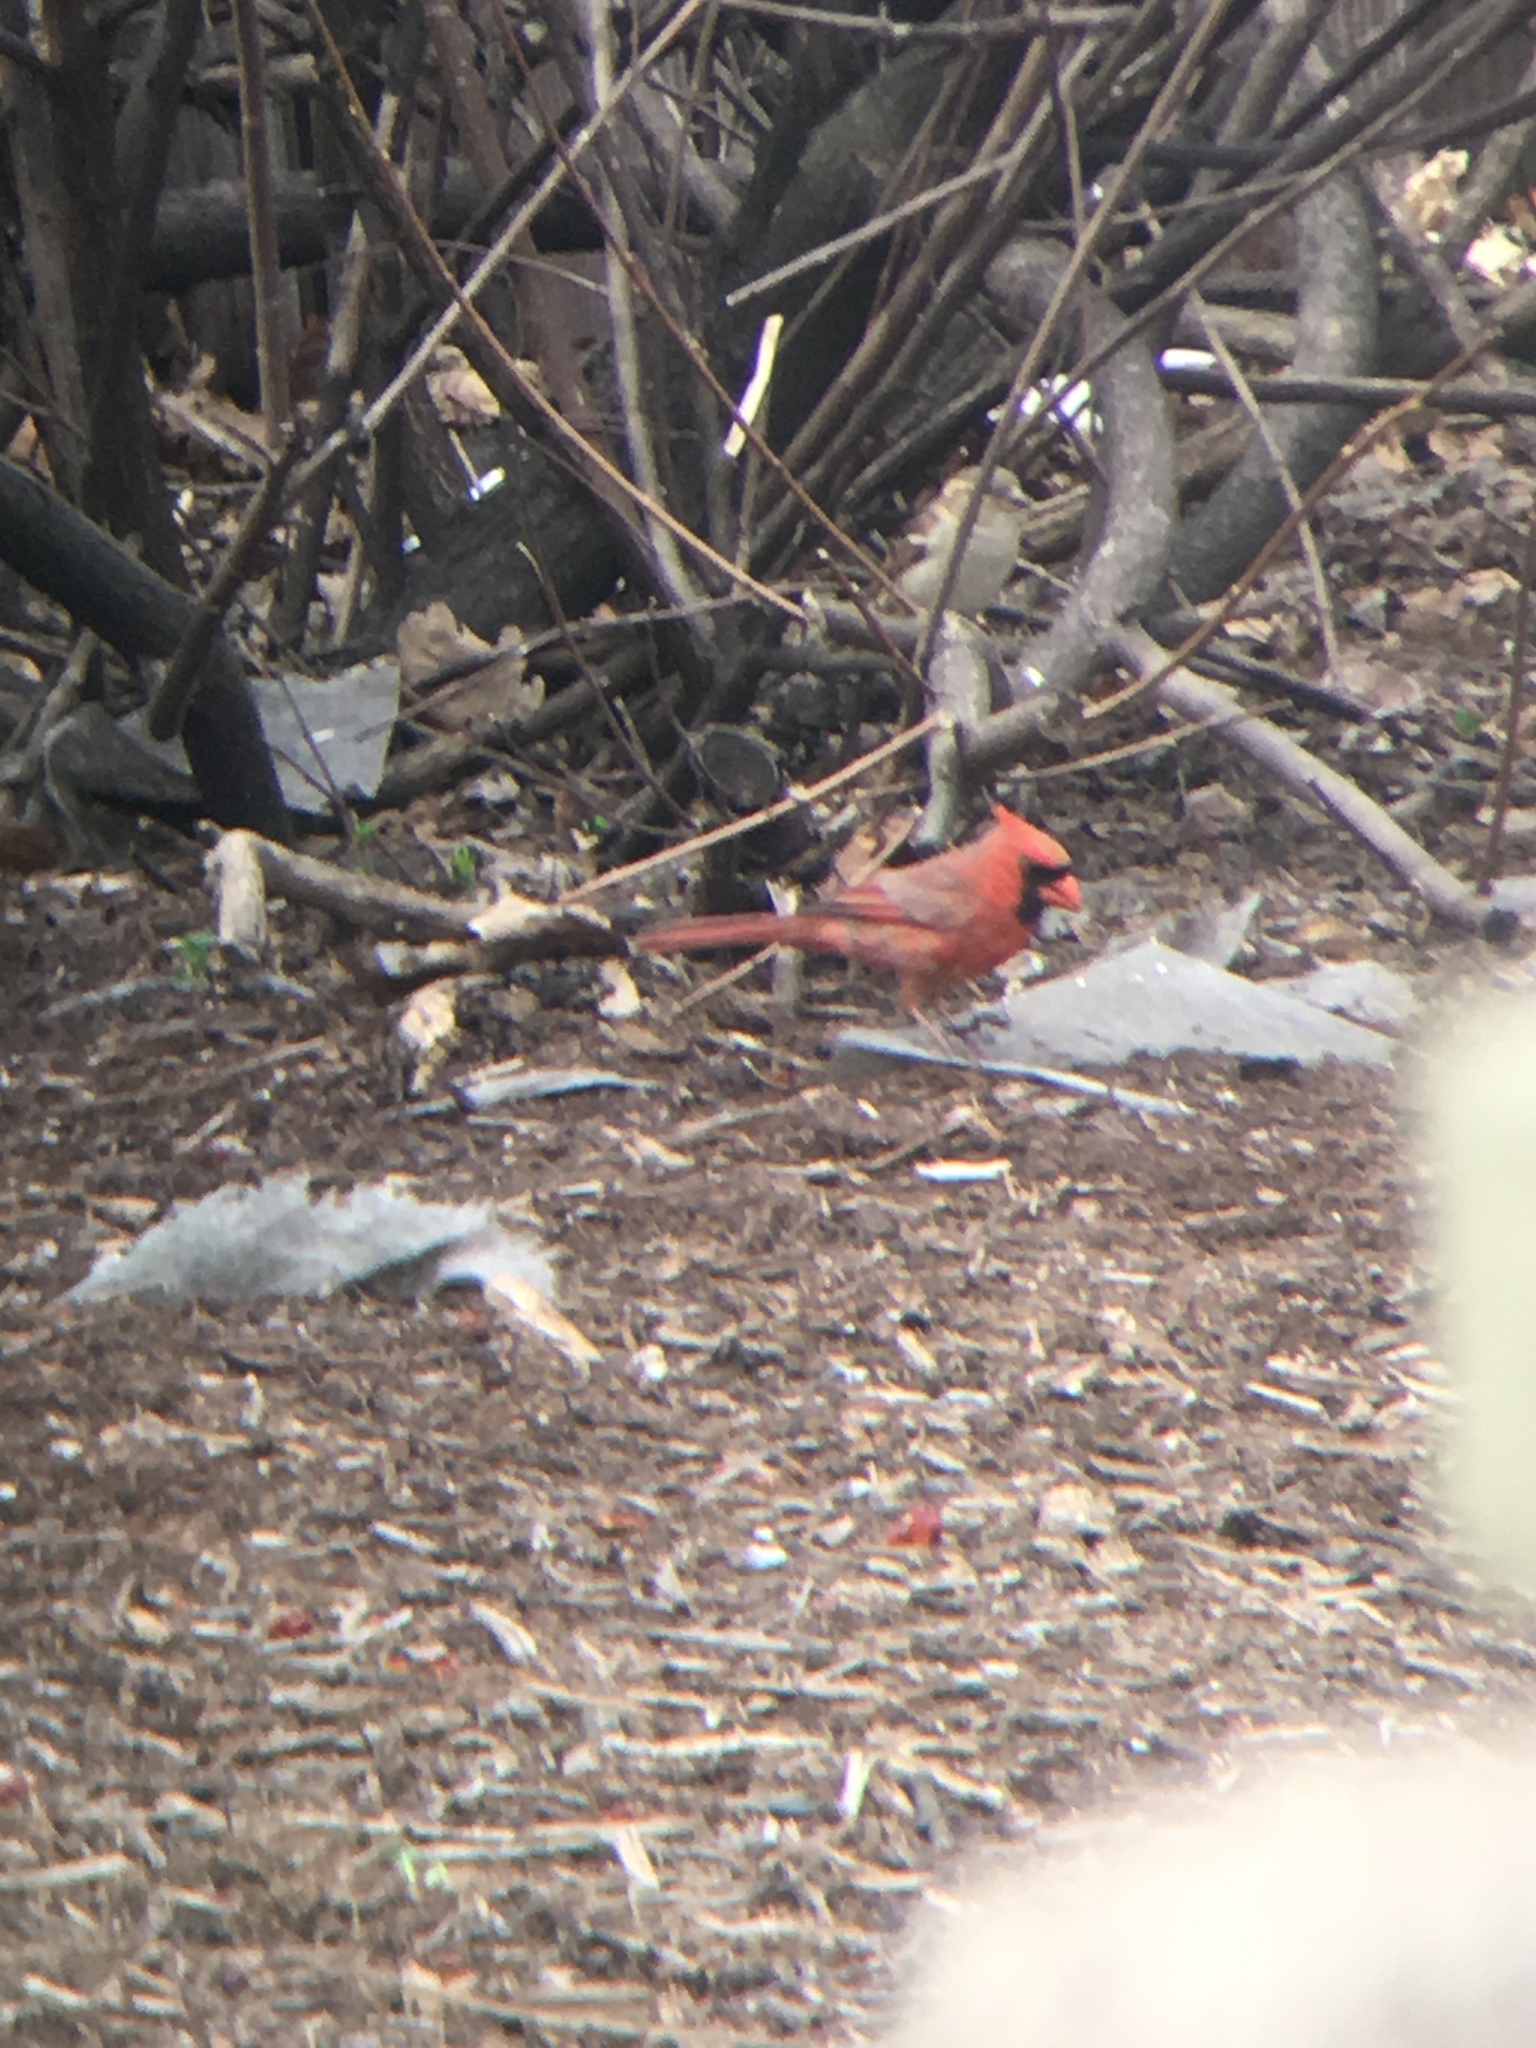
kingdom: Animalia
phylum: Chordata
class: Aves
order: Passeriformes
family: Cardinalidae
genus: Cardinalis
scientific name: Cardinalis cardinalis
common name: Northern cardinal
